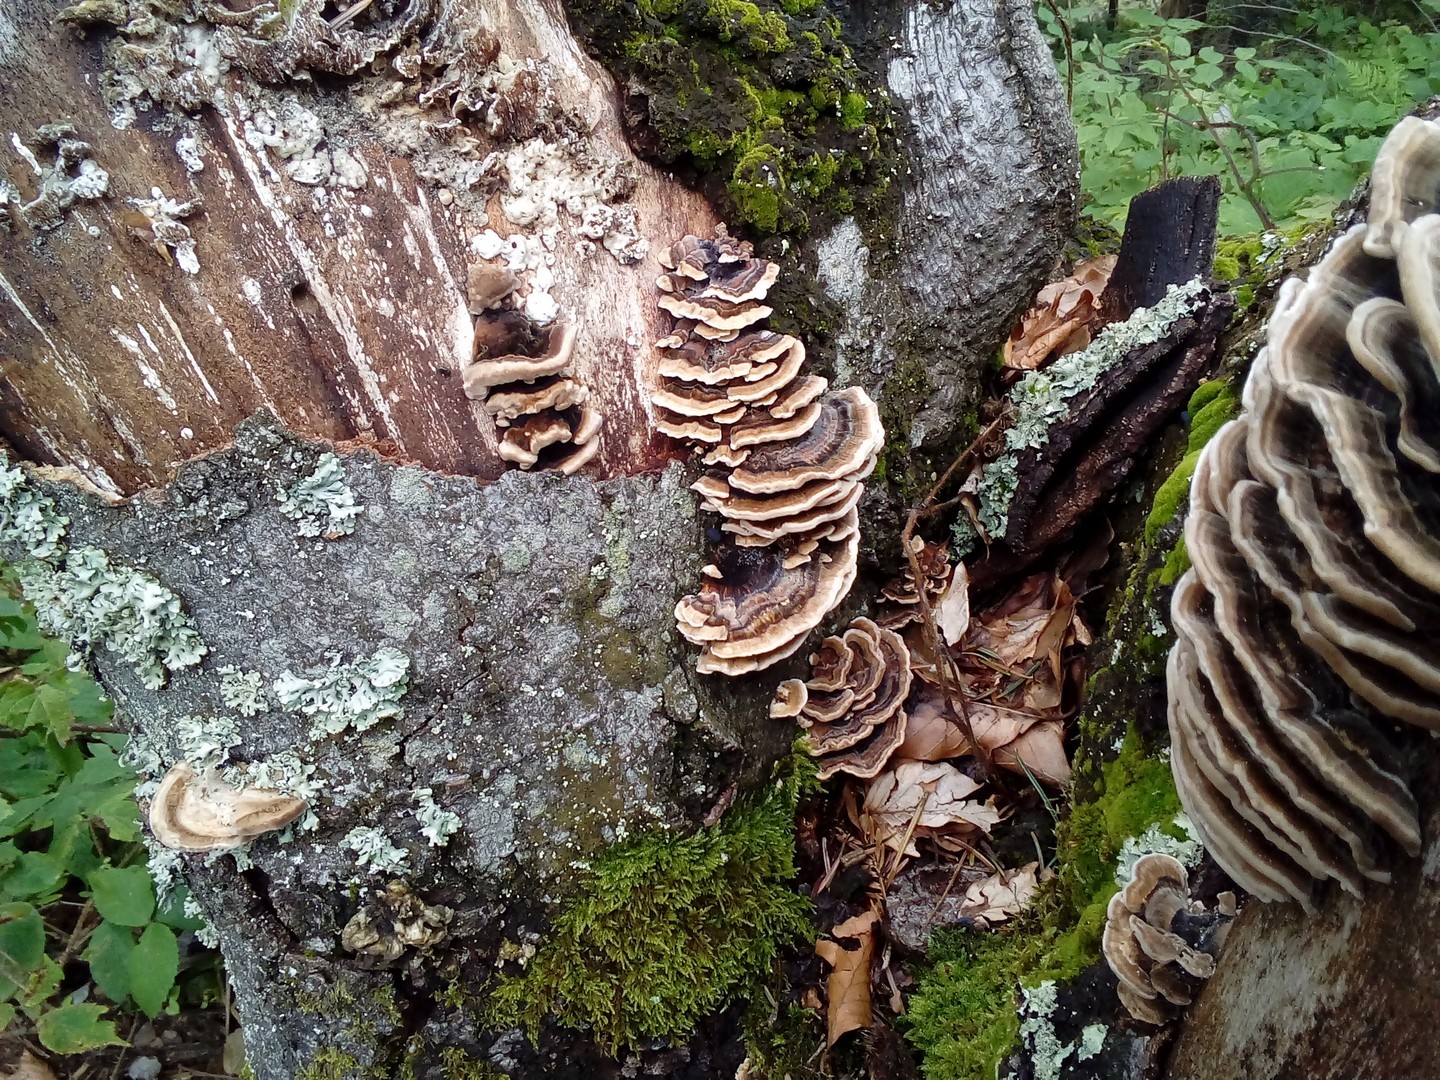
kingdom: Fungi
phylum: Basidiomycota
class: Agaricomycetes
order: Polyporales
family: Polyporaceae
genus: Trametes
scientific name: Trametes versicolor
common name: Turkeytail
